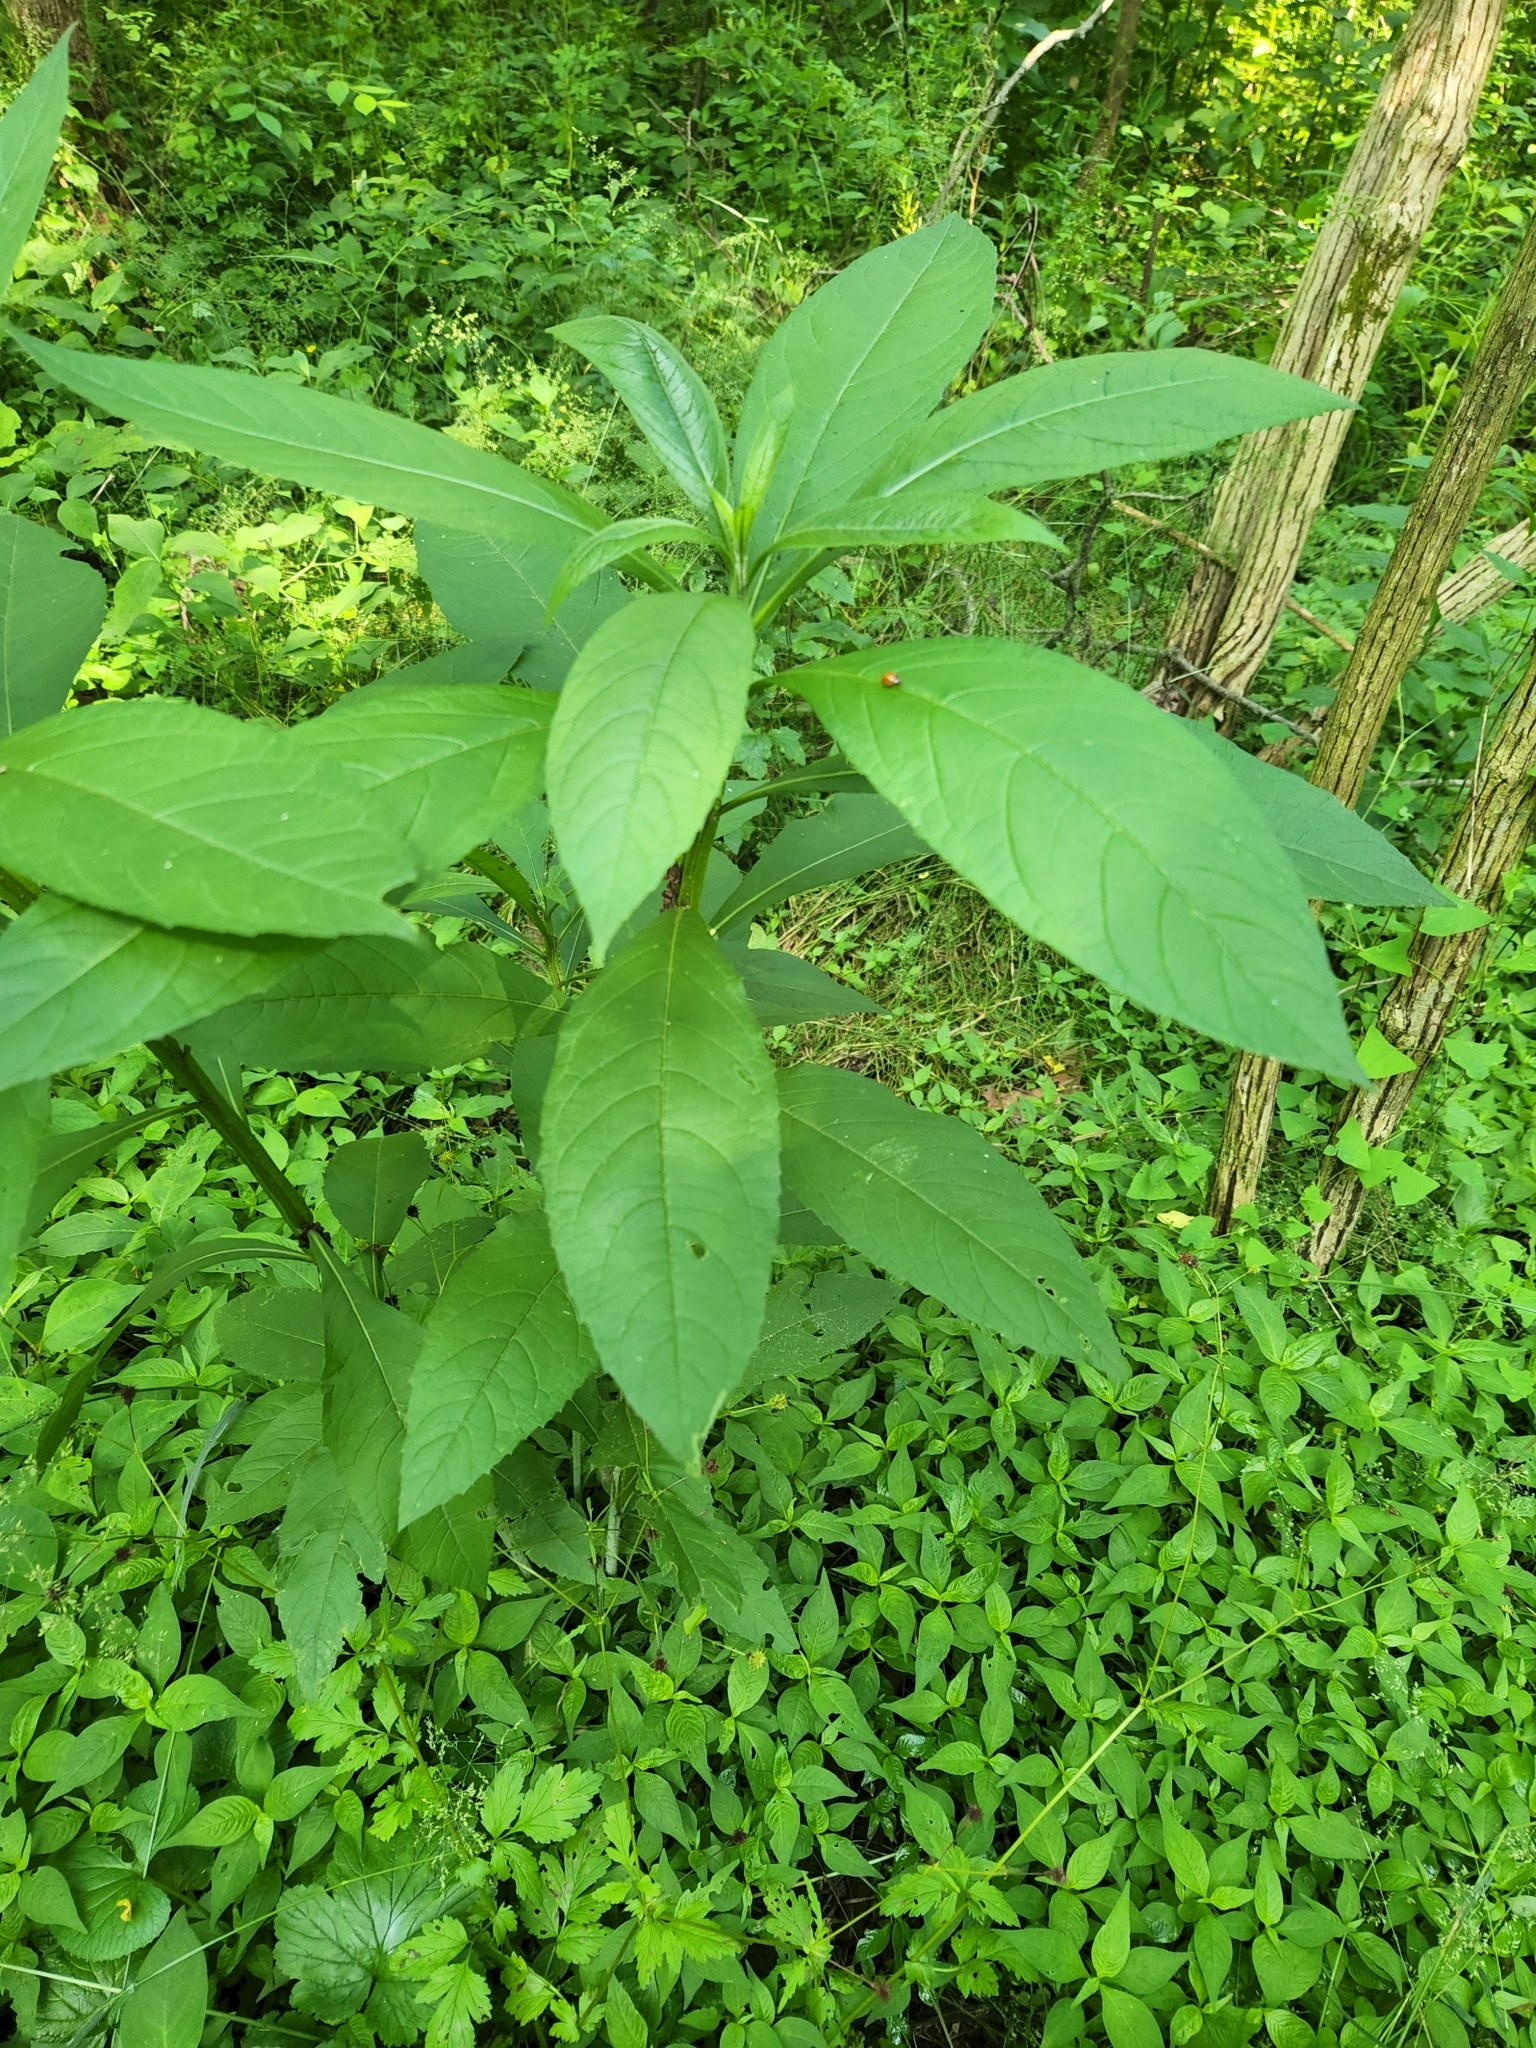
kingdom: Plantae
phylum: Tracheophyta
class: Magnoliopsida
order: Asterales
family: Asteraceae
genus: Verbesina
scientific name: Verbesina alternifolia
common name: Wingstem
